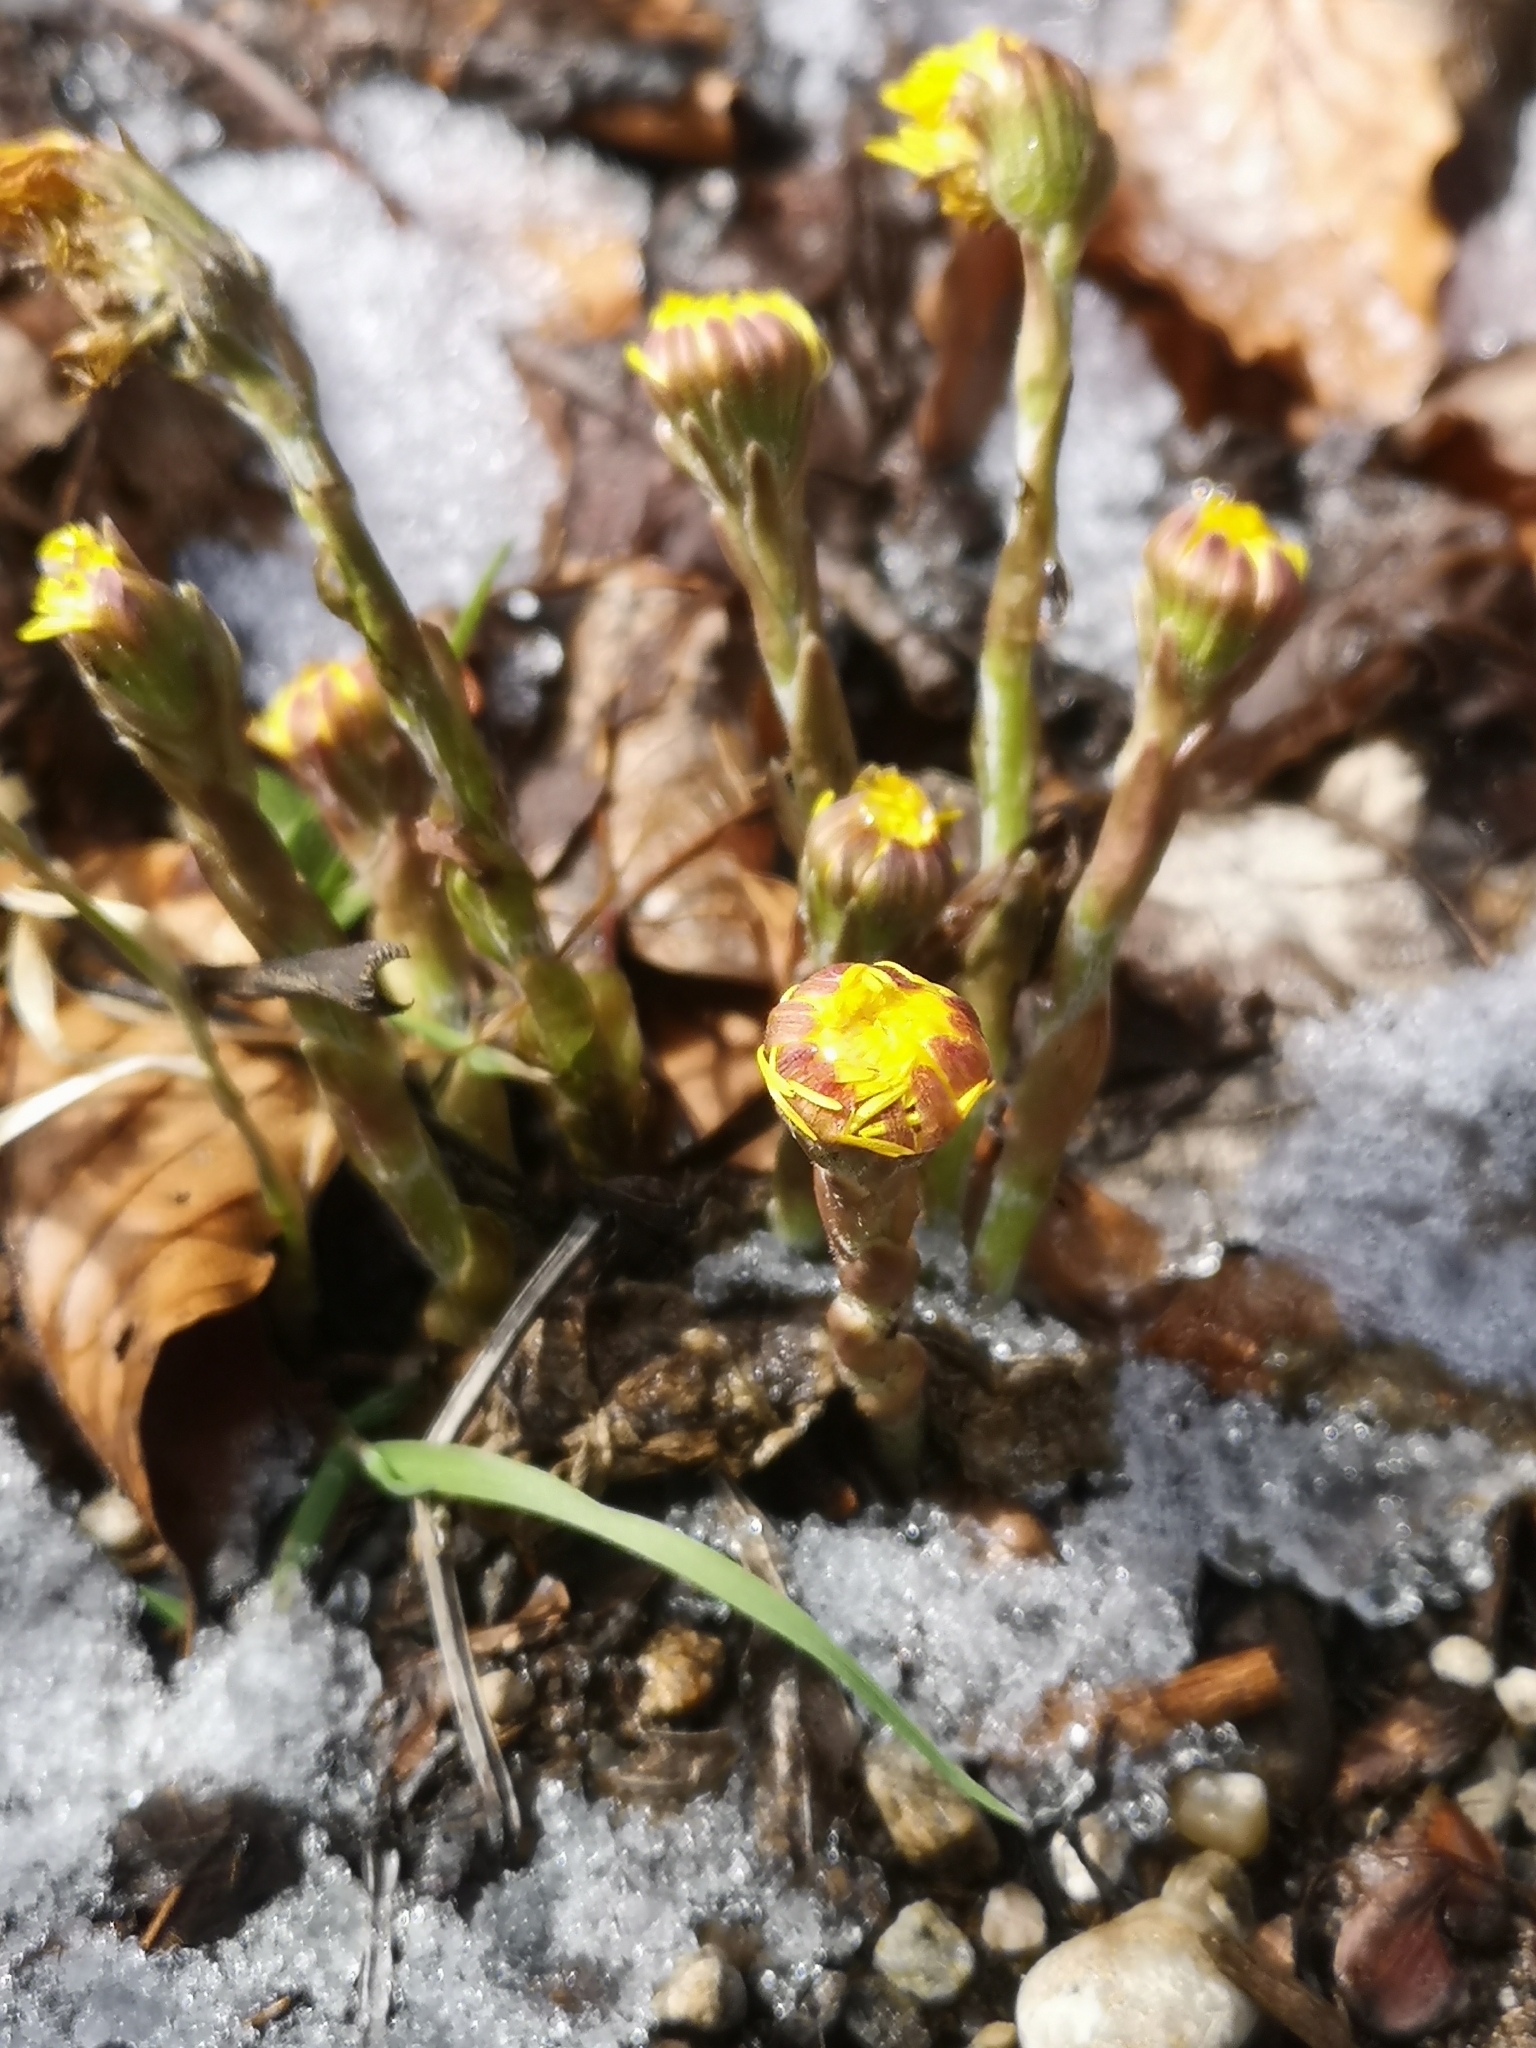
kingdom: Plantae
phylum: Tracheophyta
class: Magnoliopsida
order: Asterales
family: Asteraceae
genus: Tussilago
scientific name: Tussilago farfara
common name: Coltsfoot
